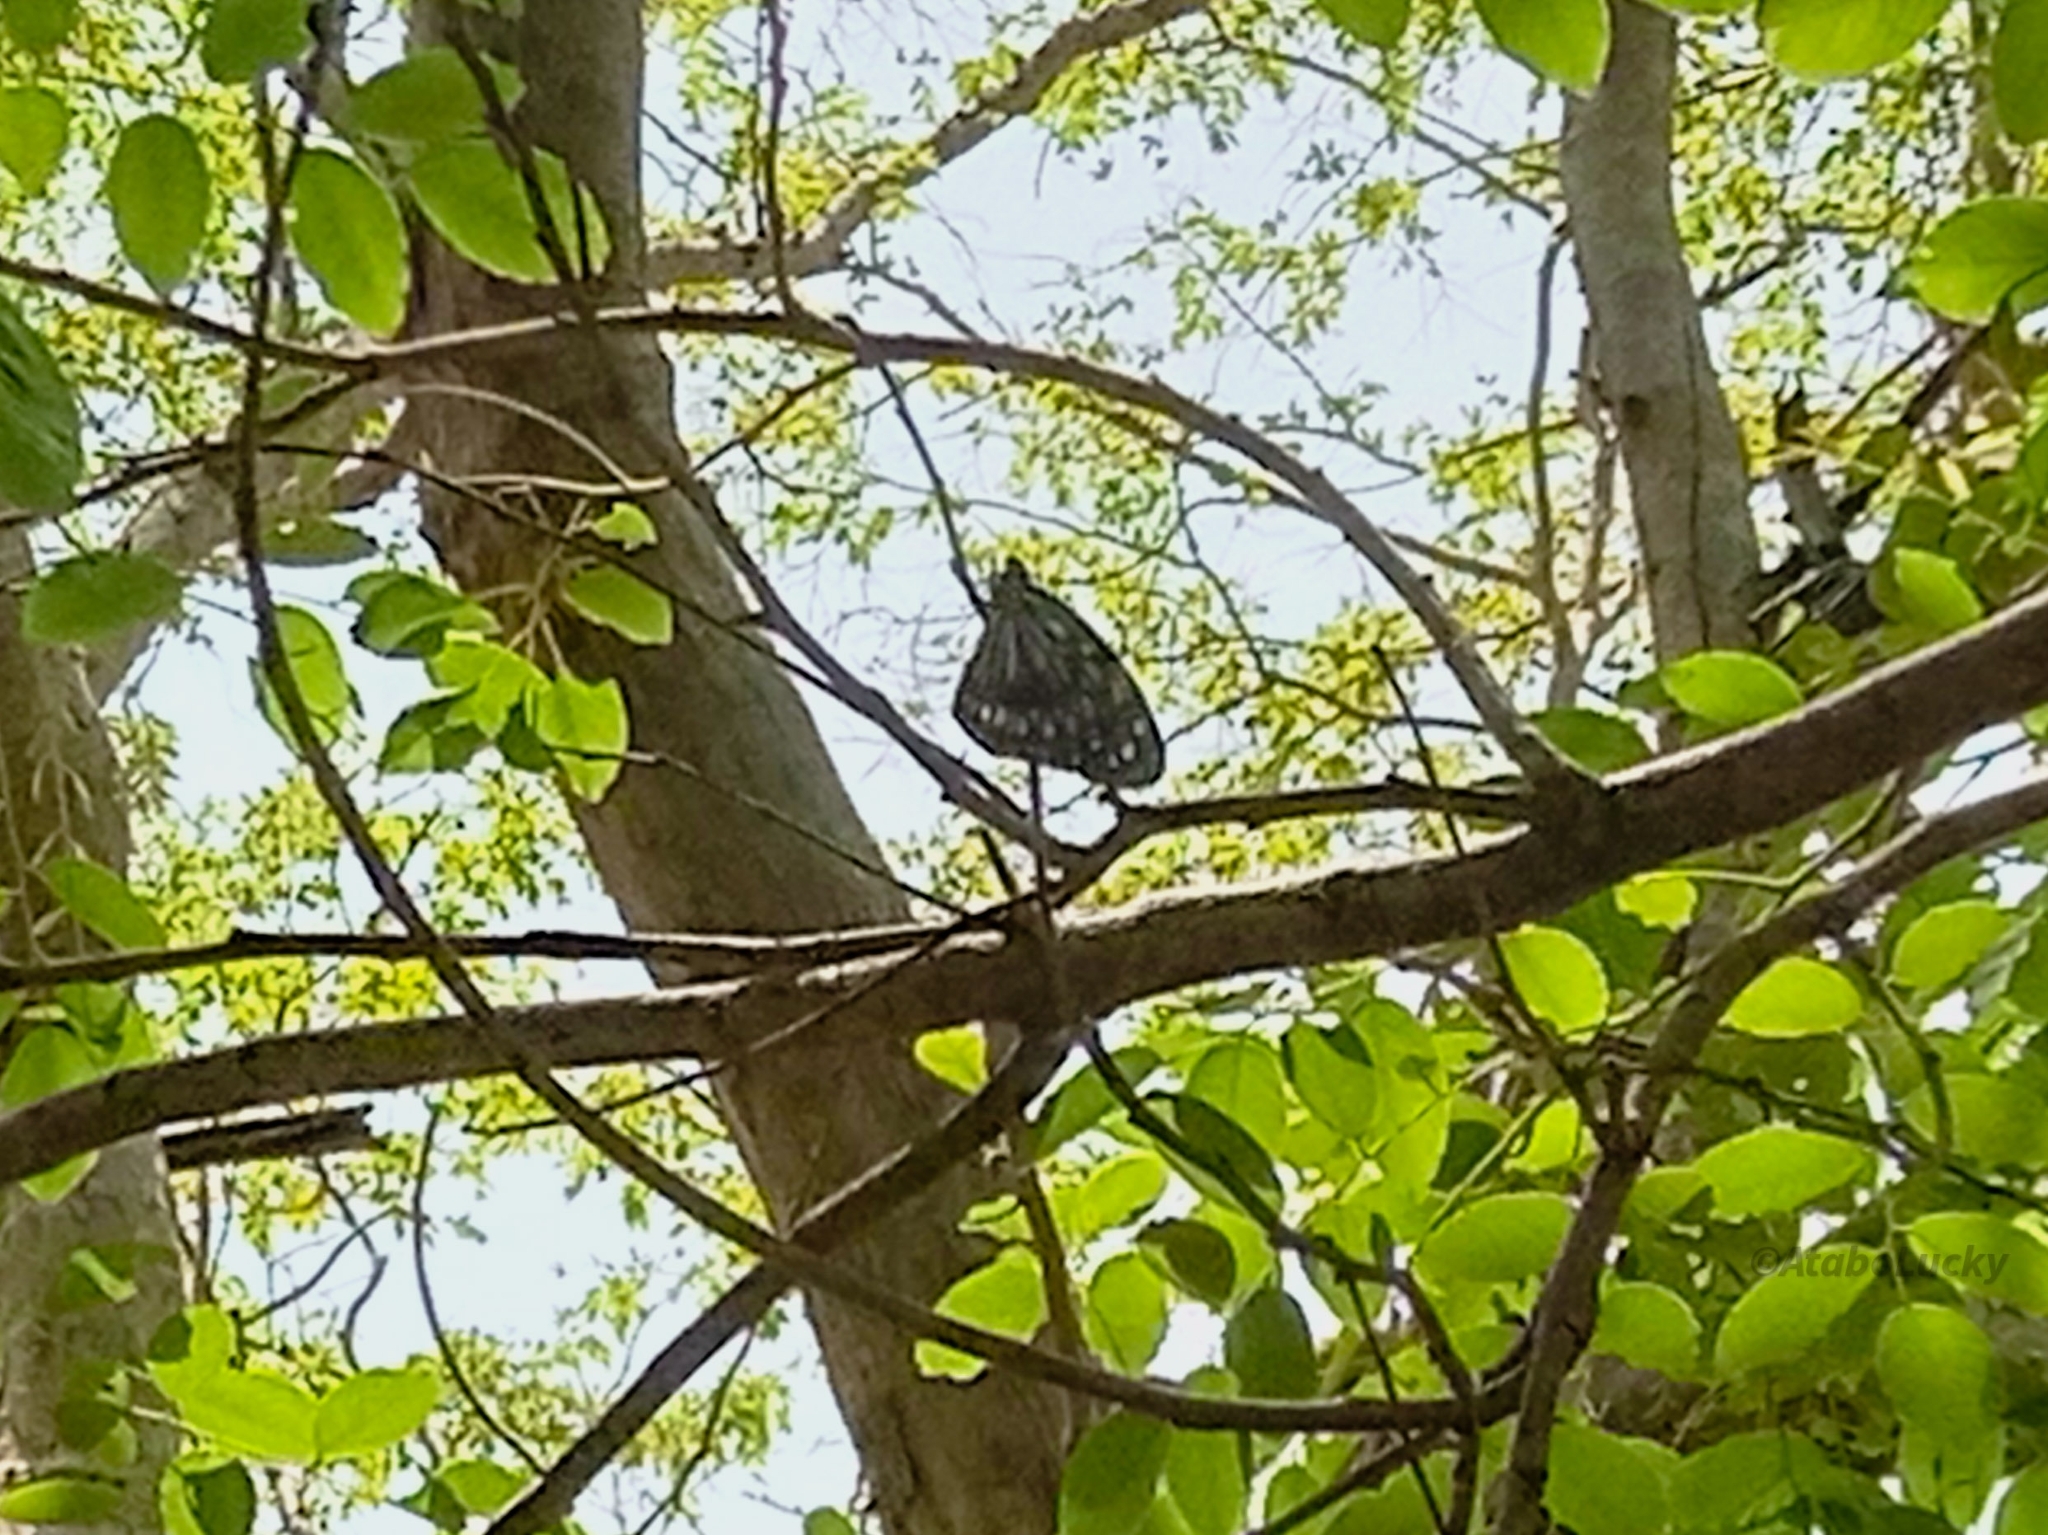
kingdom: Animalia
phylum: Arthropoda
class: Insecta
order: Lepidoptera
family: Nymphalidae
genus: Tirumala
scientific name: Tirumala petiverana
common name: Blue monarch
